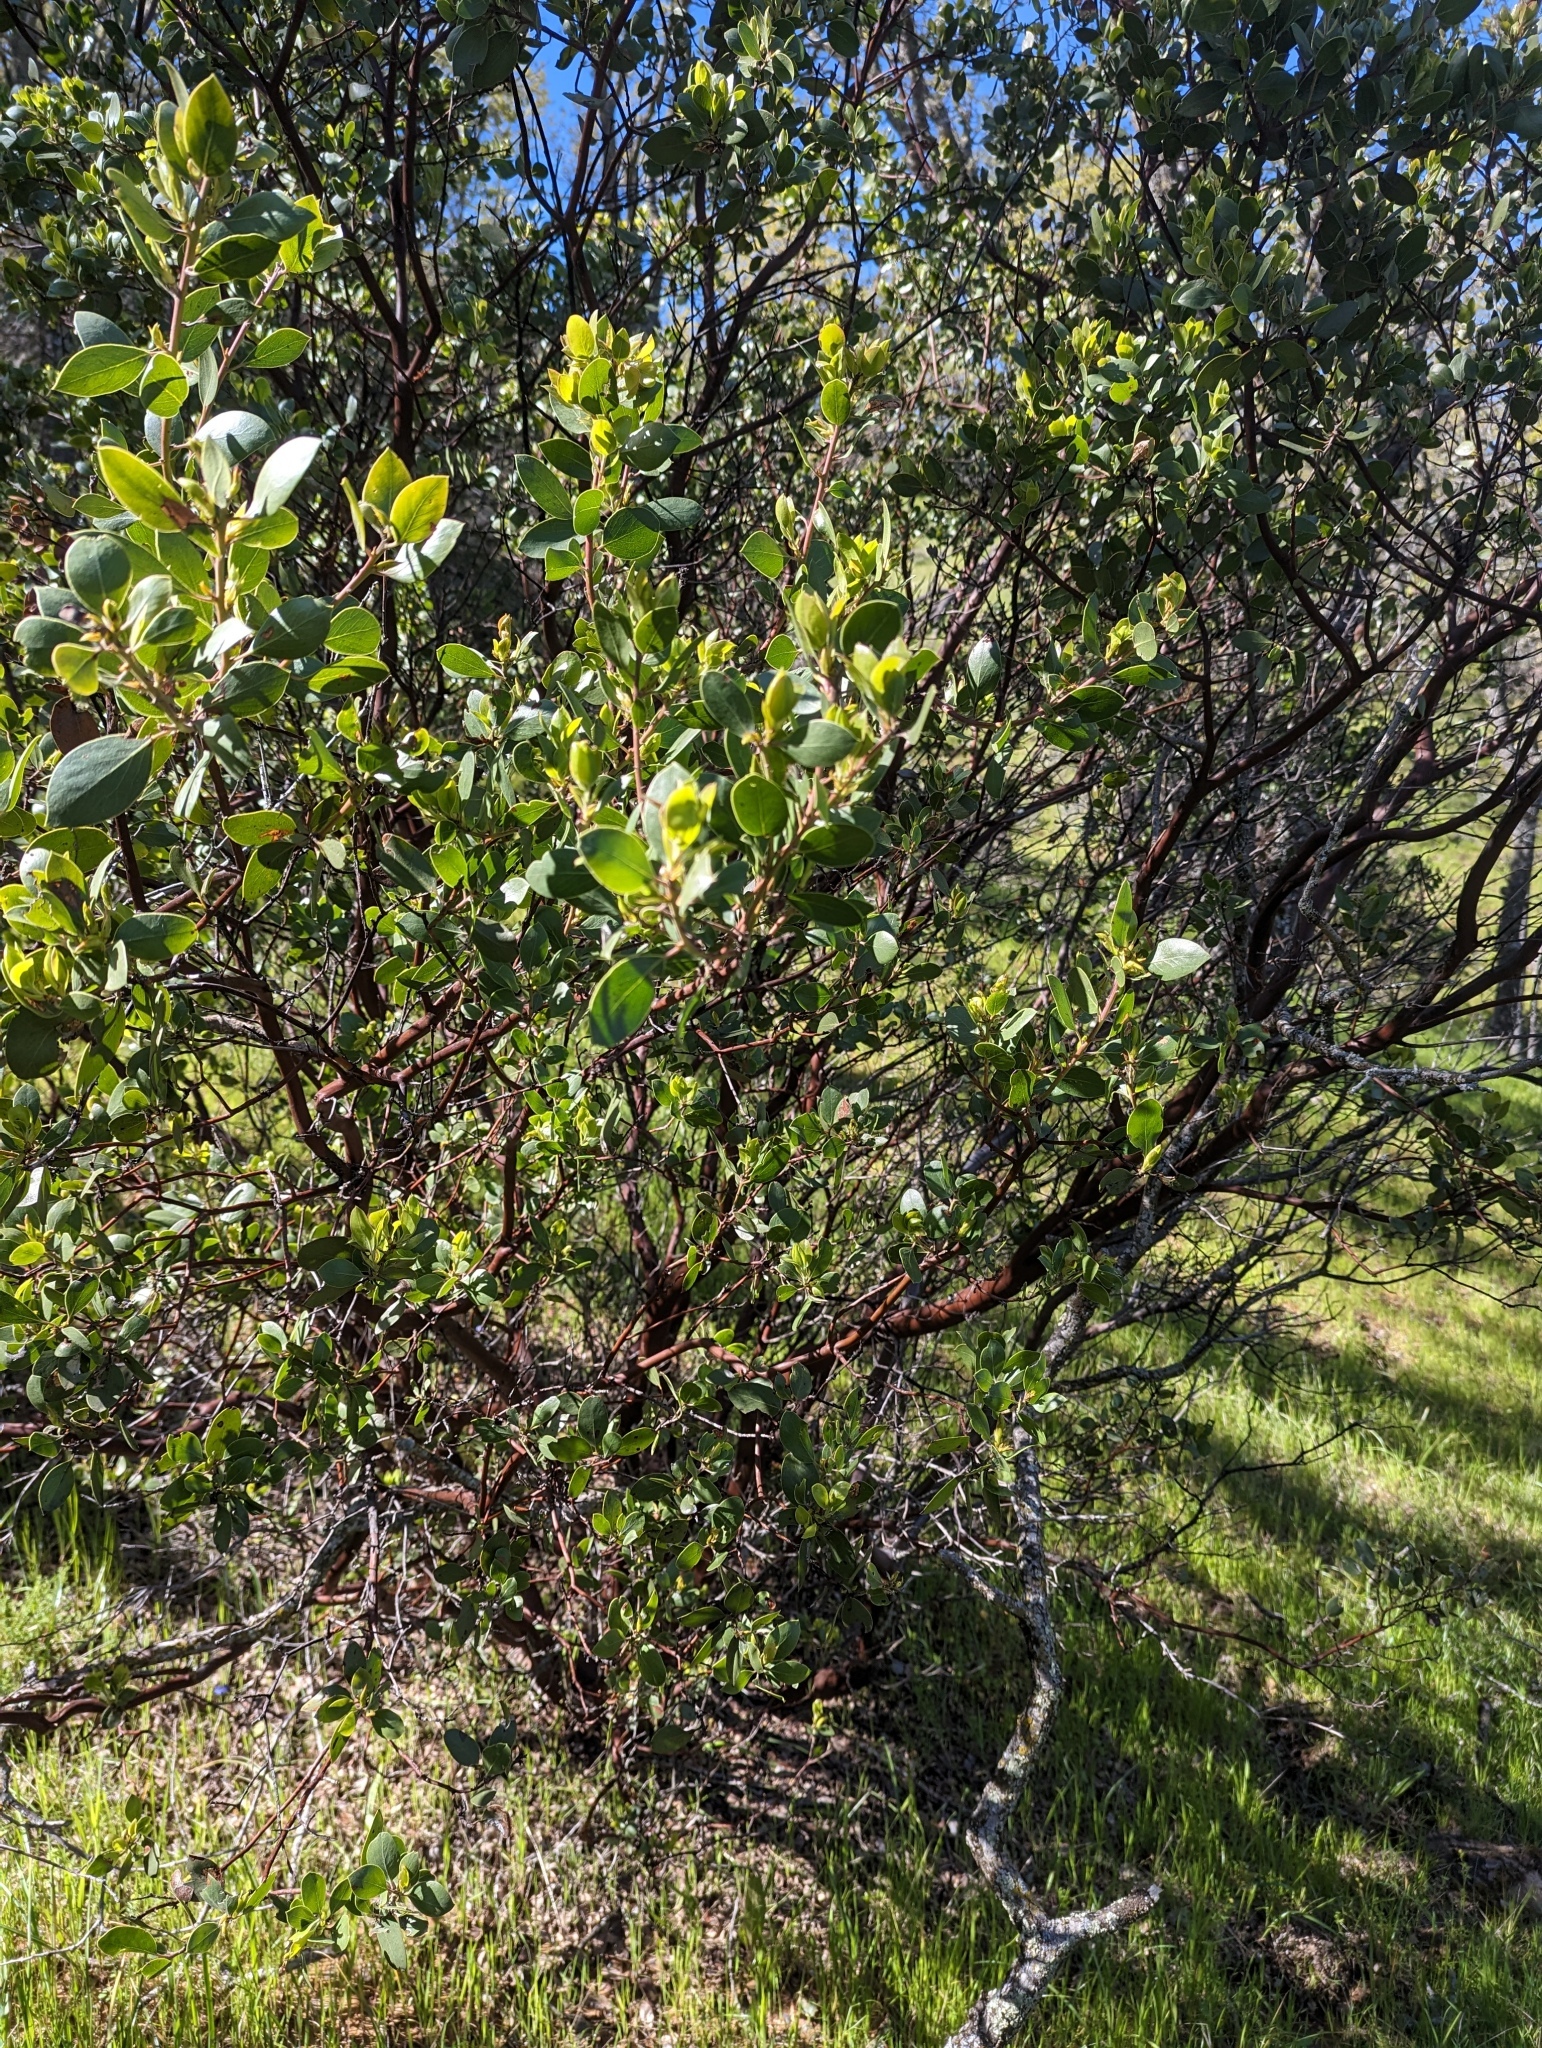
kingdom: Plantae
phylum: Tracheophyta
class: Magnoliopsida
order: Ericales
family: Ericaceae
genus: Arctostaphylos
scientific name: Arctostaphylos manzanita
